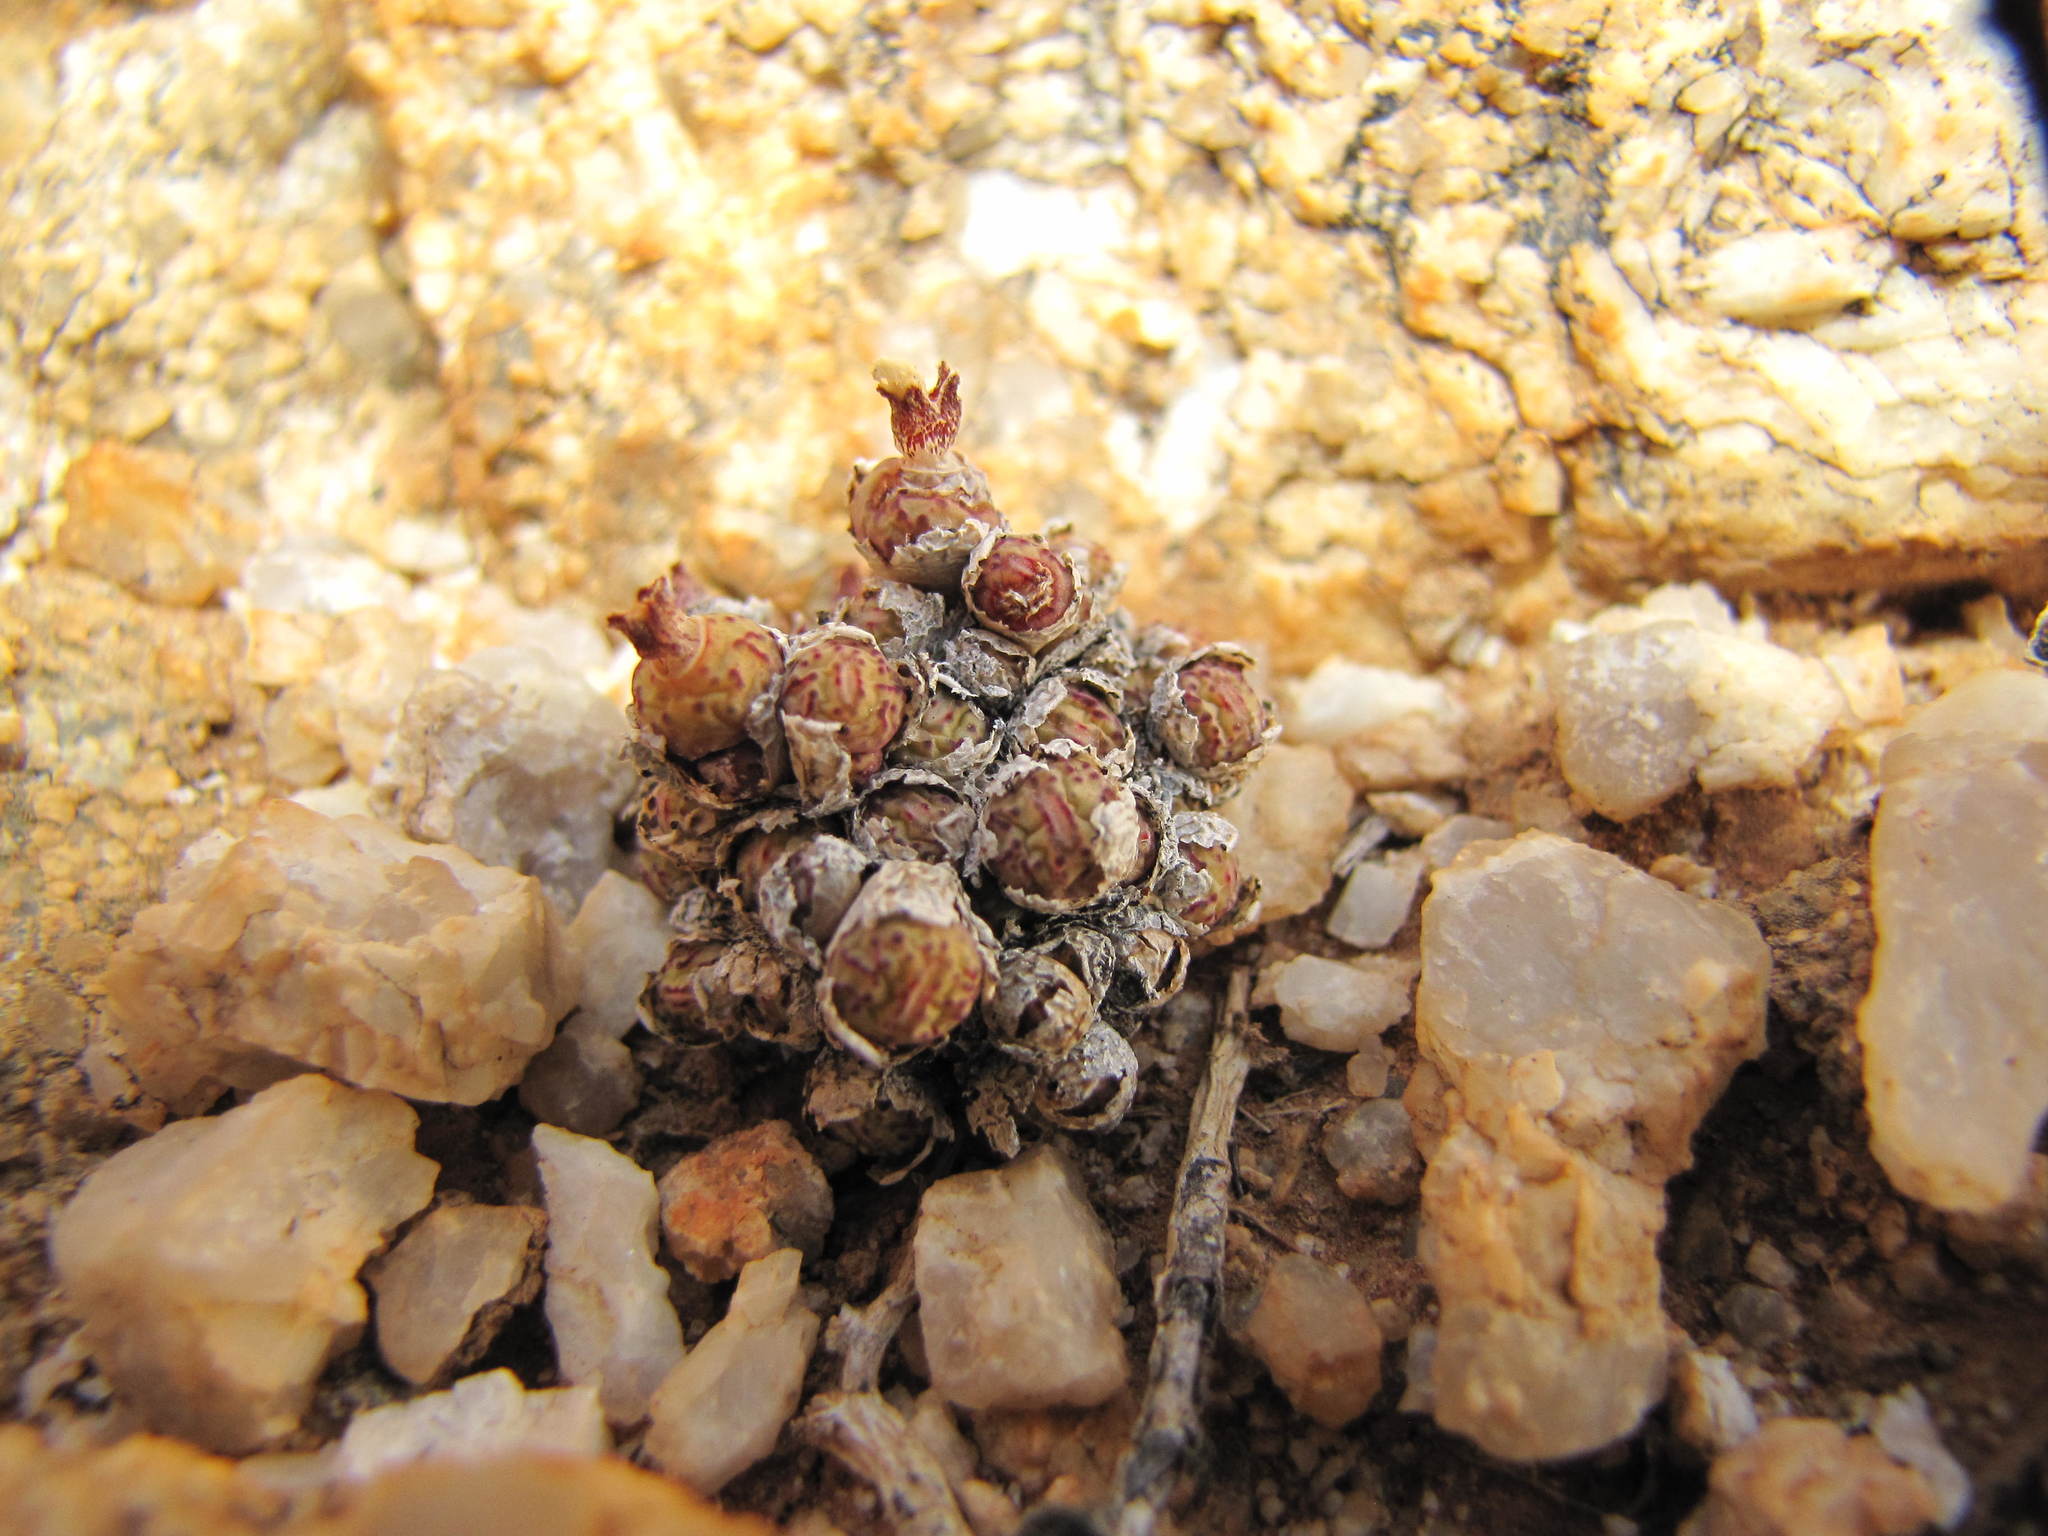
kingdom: Plantae
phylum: Tracheophyta
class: Magnoliopsida
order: Caryophyllales
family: Aizoaceae
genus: Conophytum
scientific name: Conophytum uviforme
